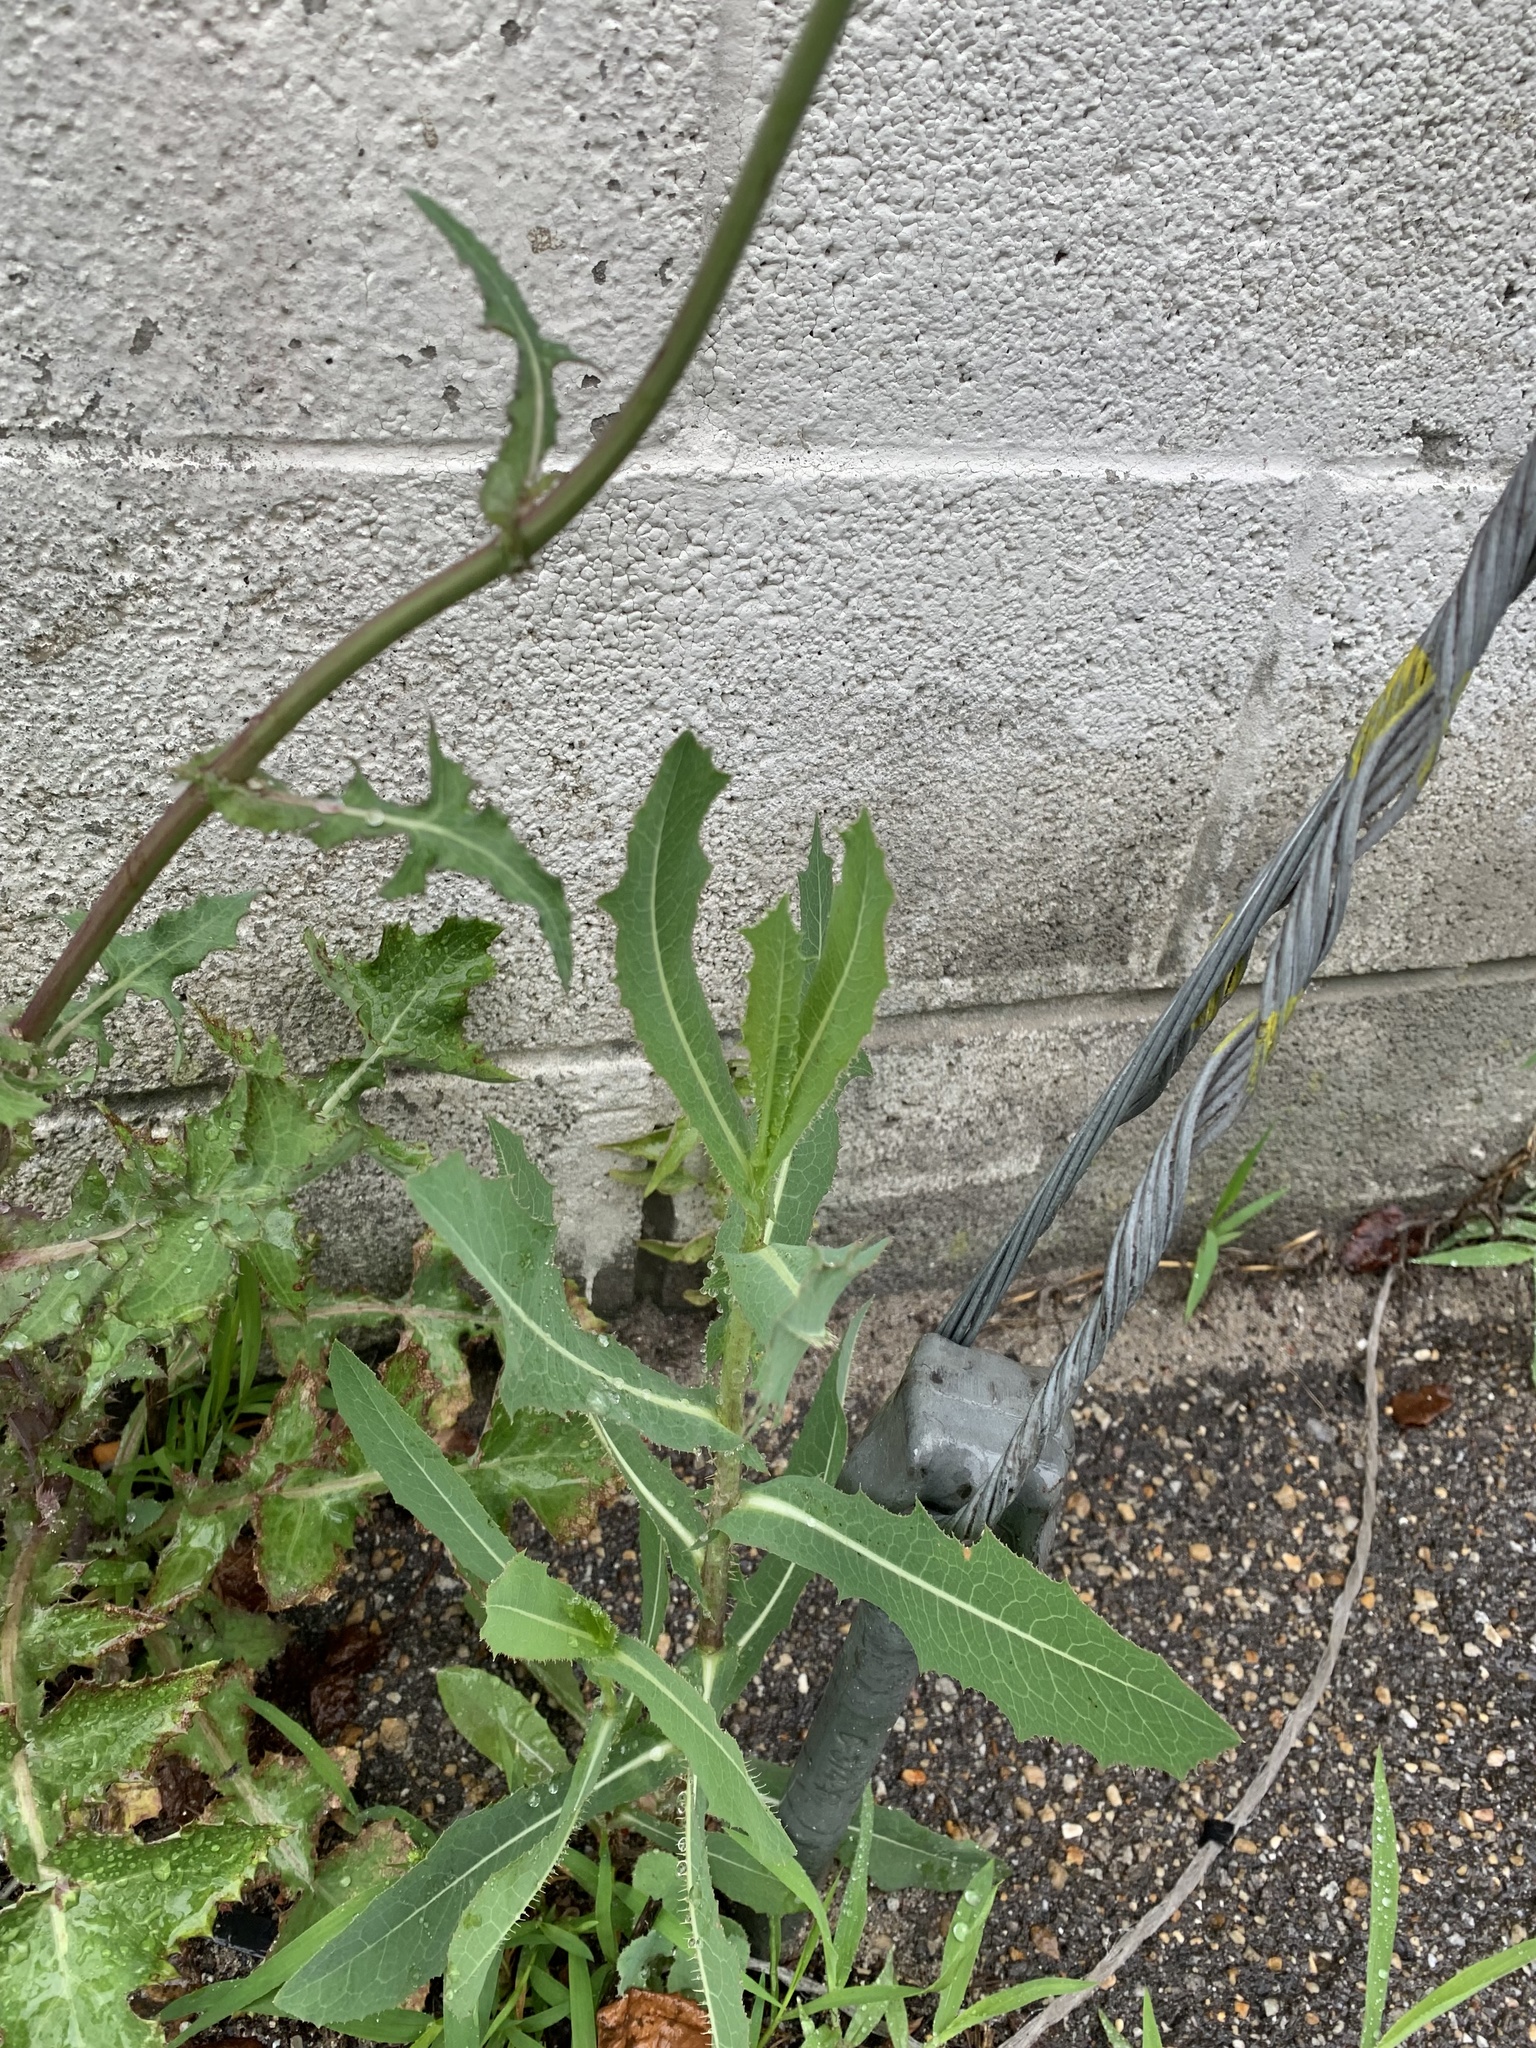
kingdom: Plantae
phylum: Tracheophyta
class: Magnoliopsida
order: Asterales
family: Asteraceae
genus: Lactuca
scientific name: Lactuca serriola
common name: Prickly lettuce
